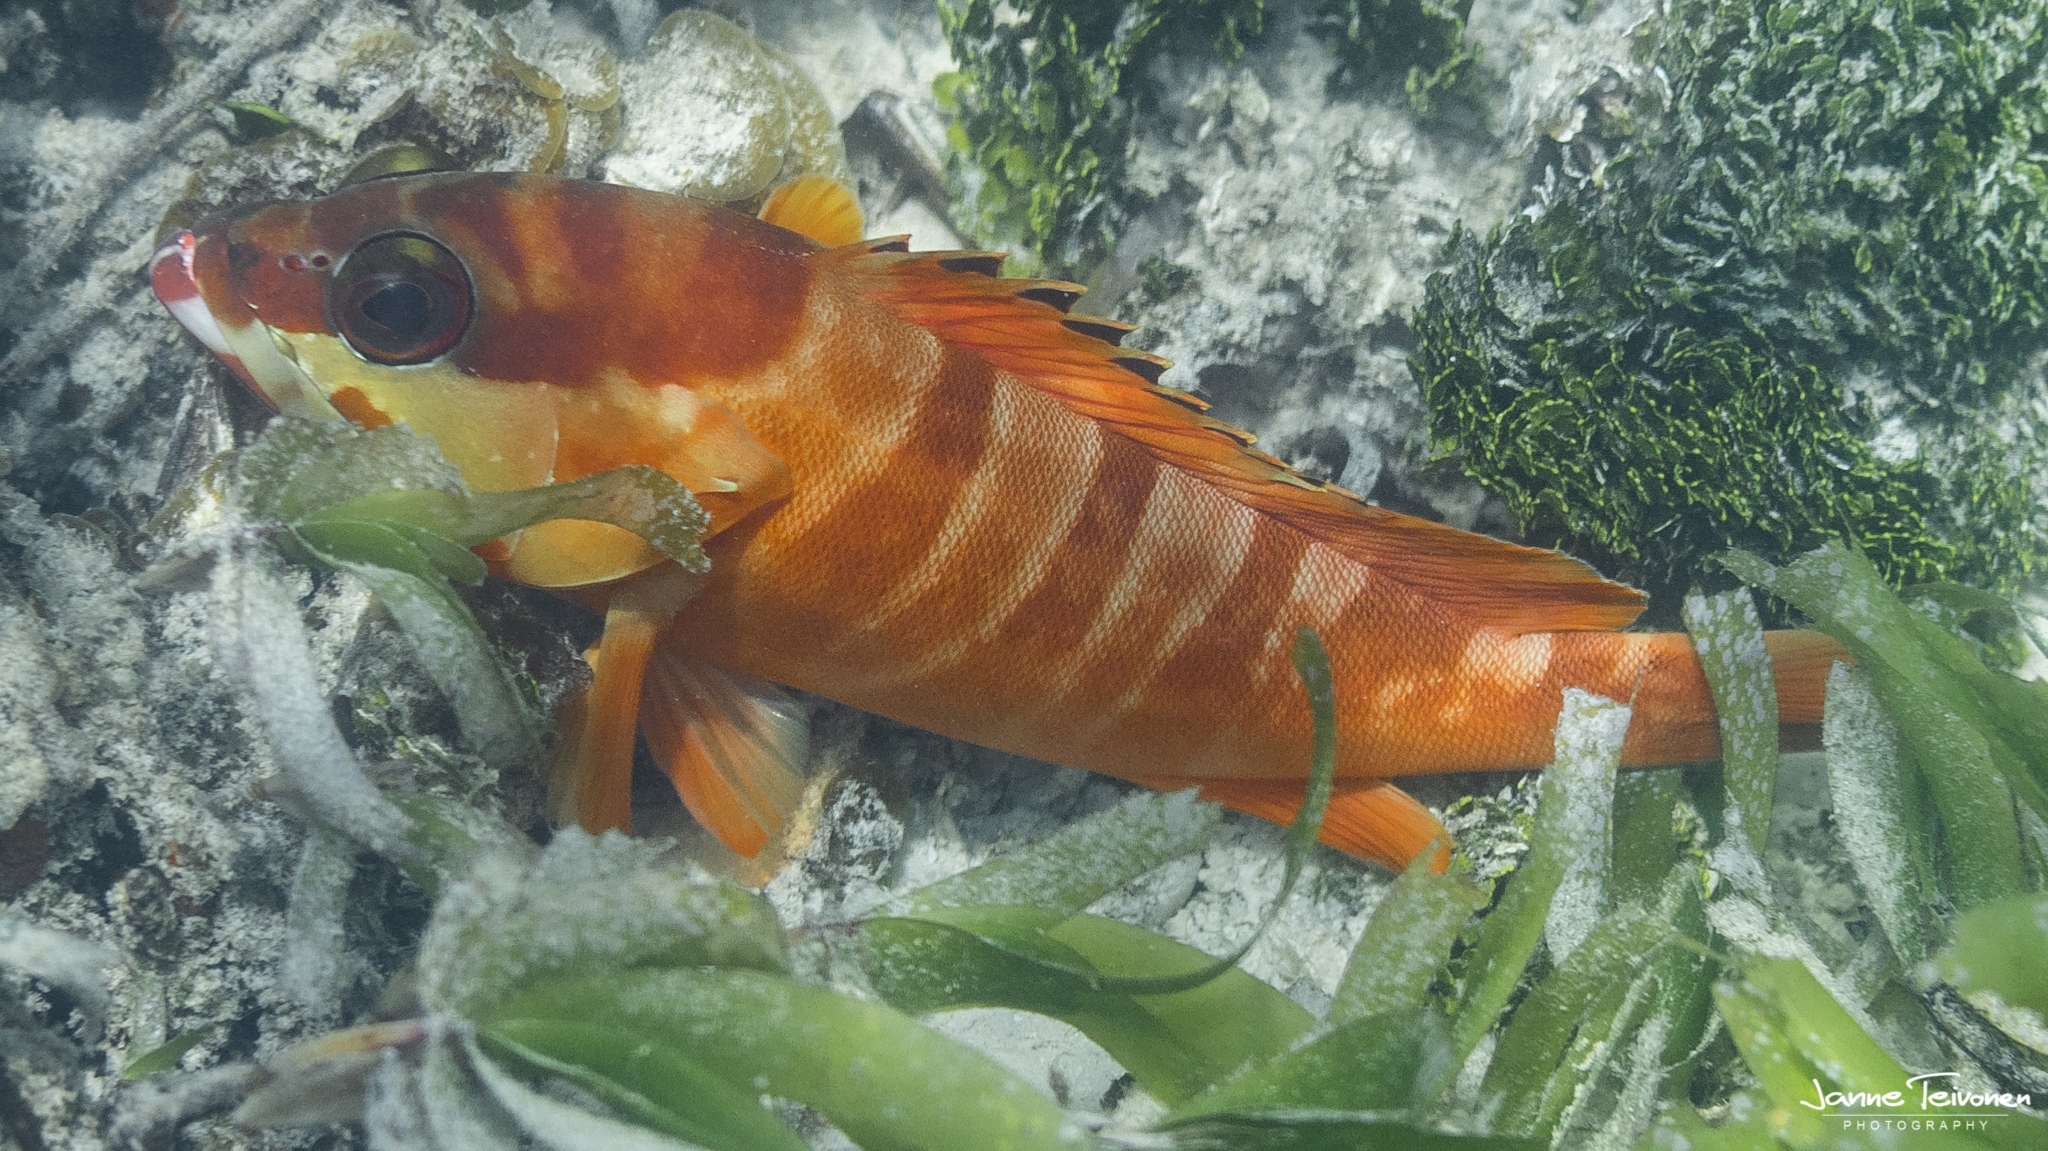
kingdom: Animalia
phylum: Chordata
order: Perciformes
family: Serranidae
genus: Epinephelus
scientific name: Epinephelus fasciatus
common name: Blacktip grouper
